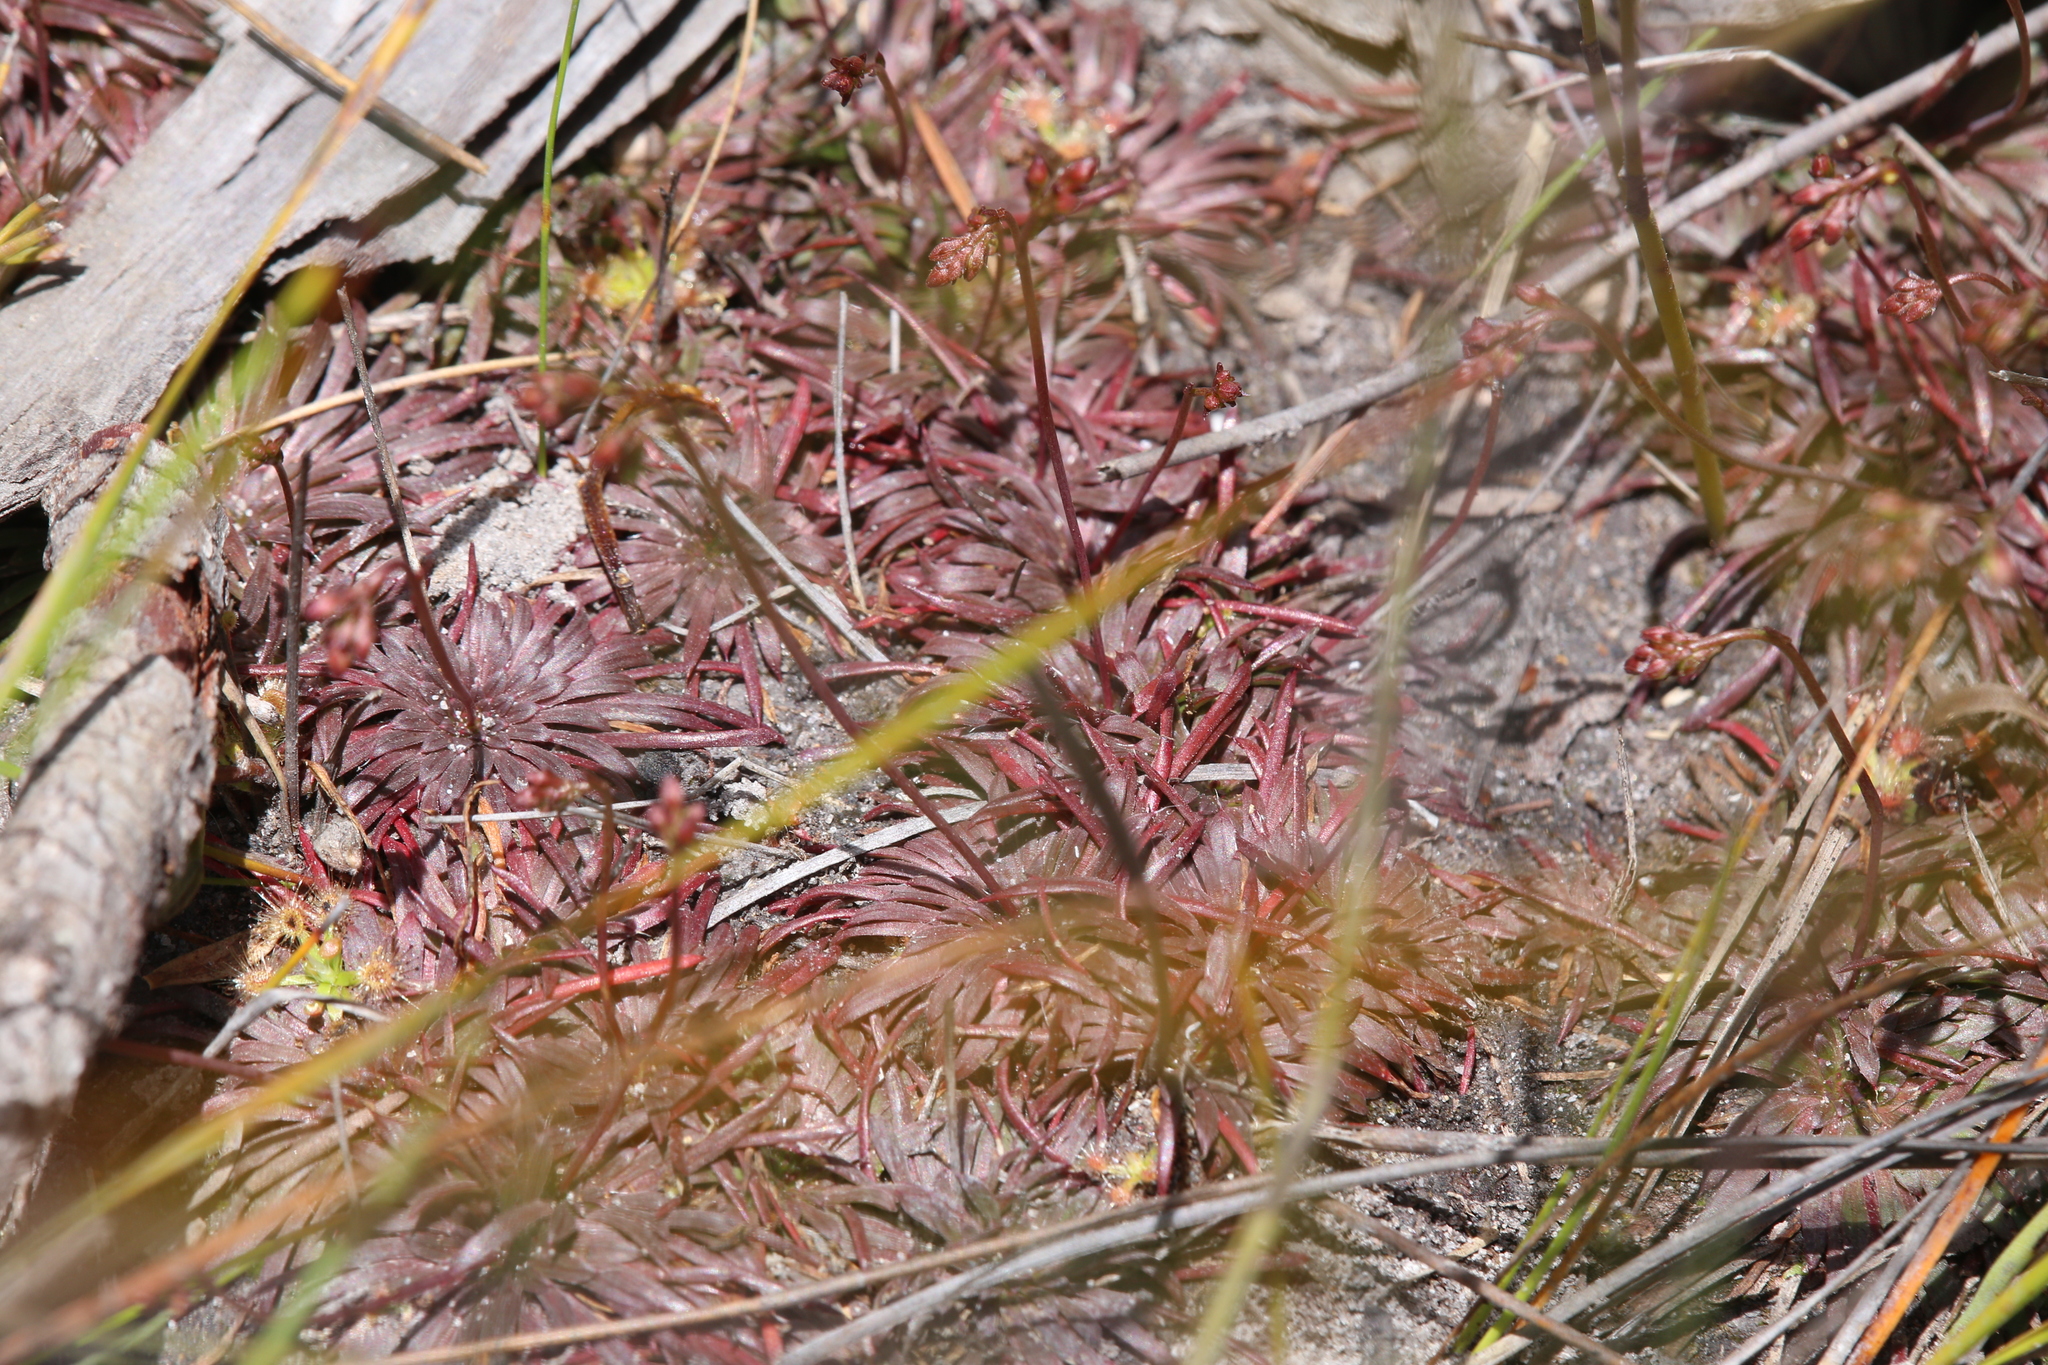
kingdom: Plantae
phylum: Tracheophyta
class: Magnoliopsida
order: Asterales
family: Stylidiaceae
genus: Stylidium
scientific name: Stylidium caespitosum
